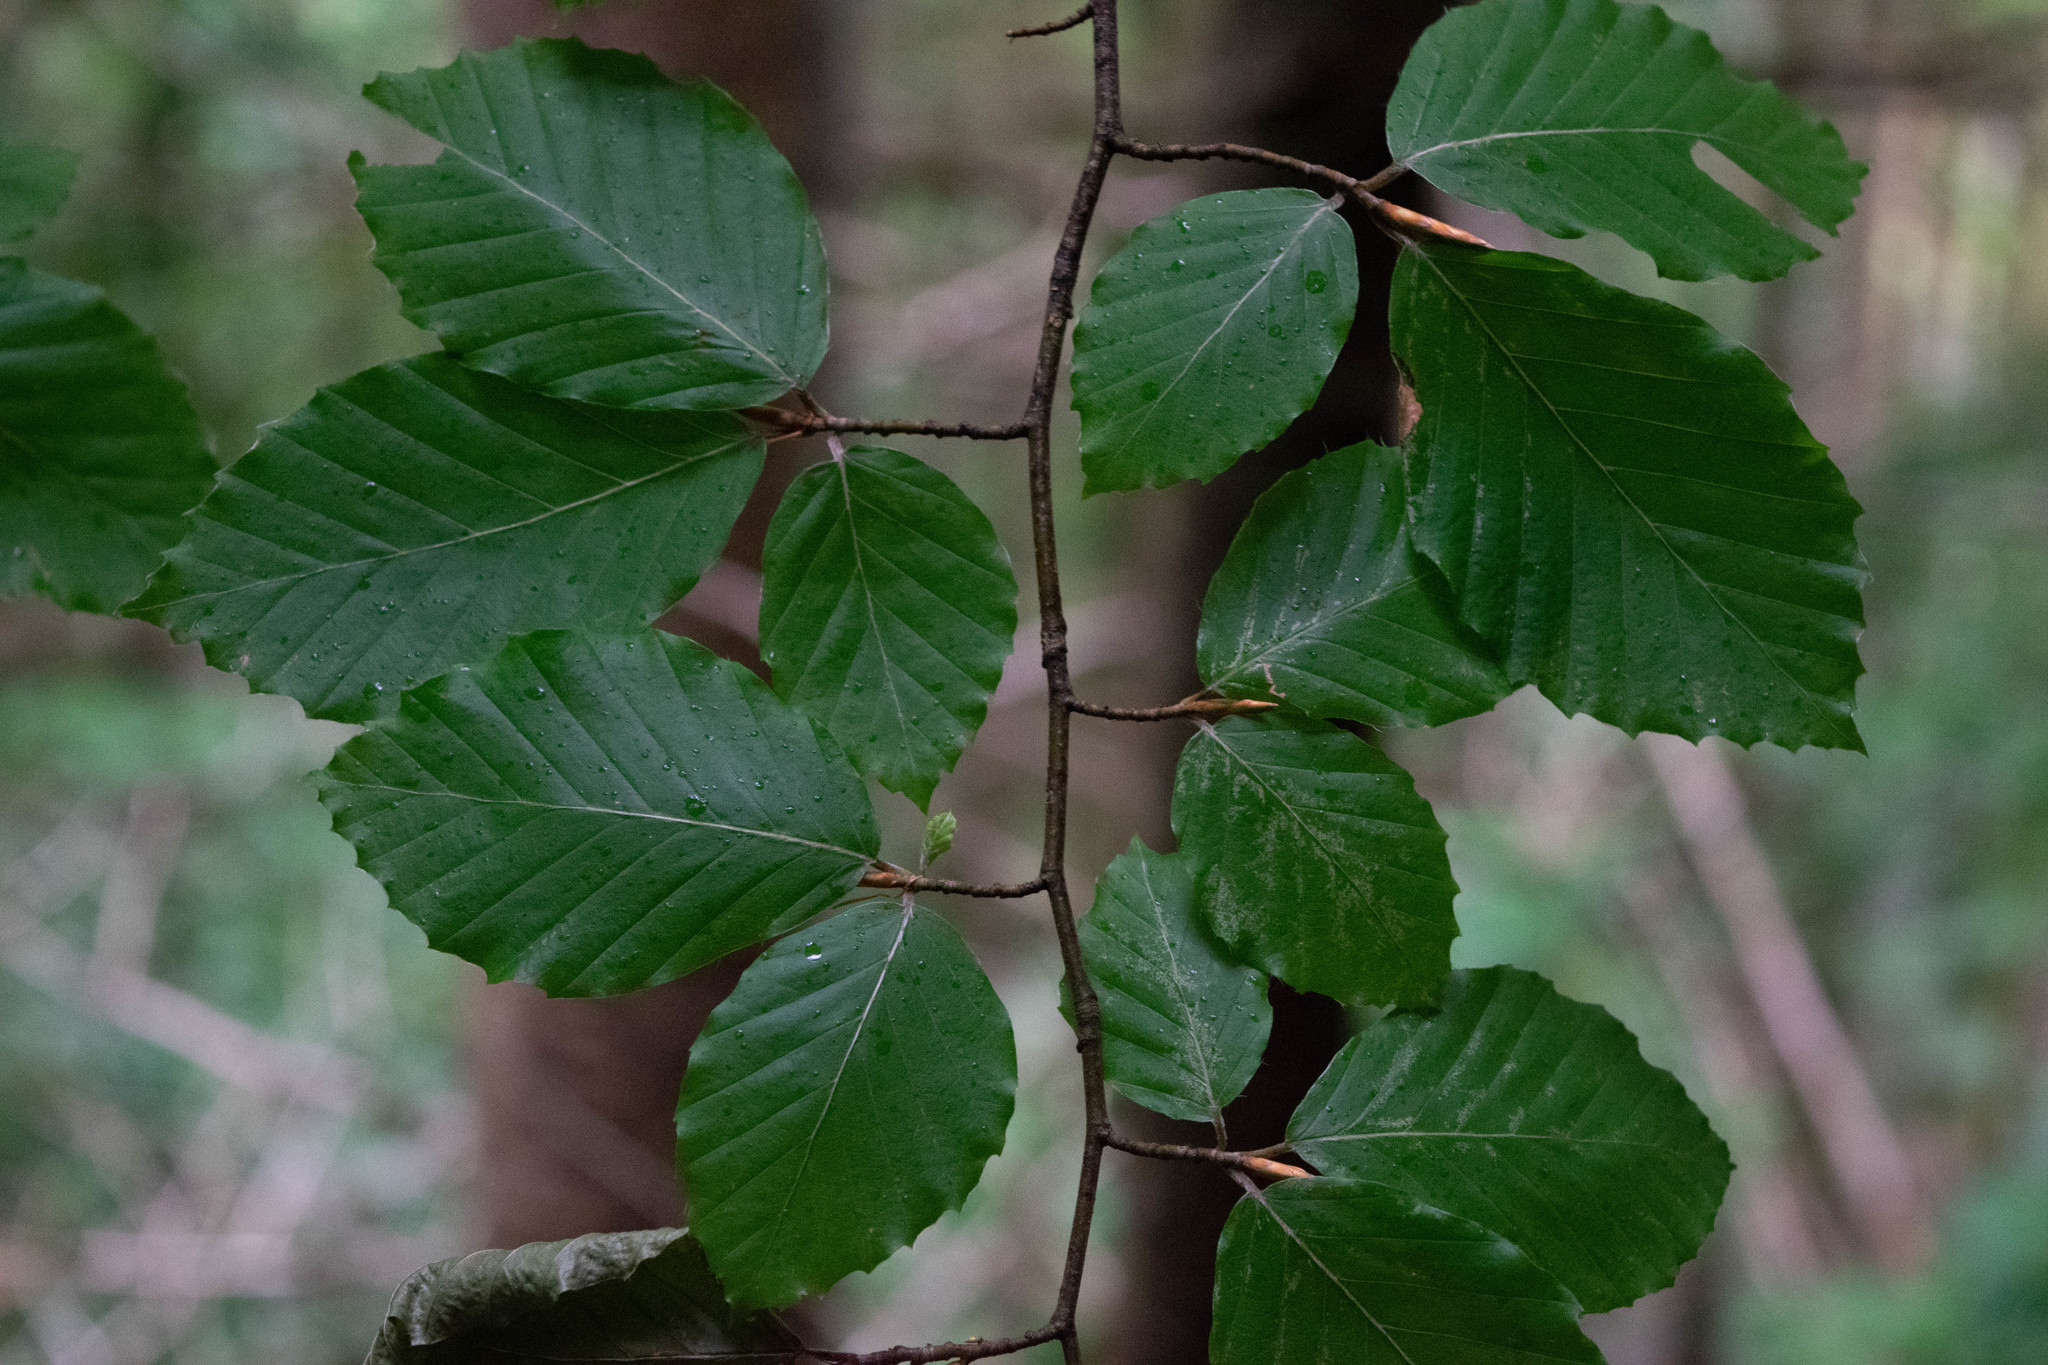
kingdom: Plantae
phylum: Tracheophyta
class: Magnoliopsida
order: Fagales
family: Fagaceae
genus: Fagus
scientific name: Fagus sylvatica
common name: Beech
